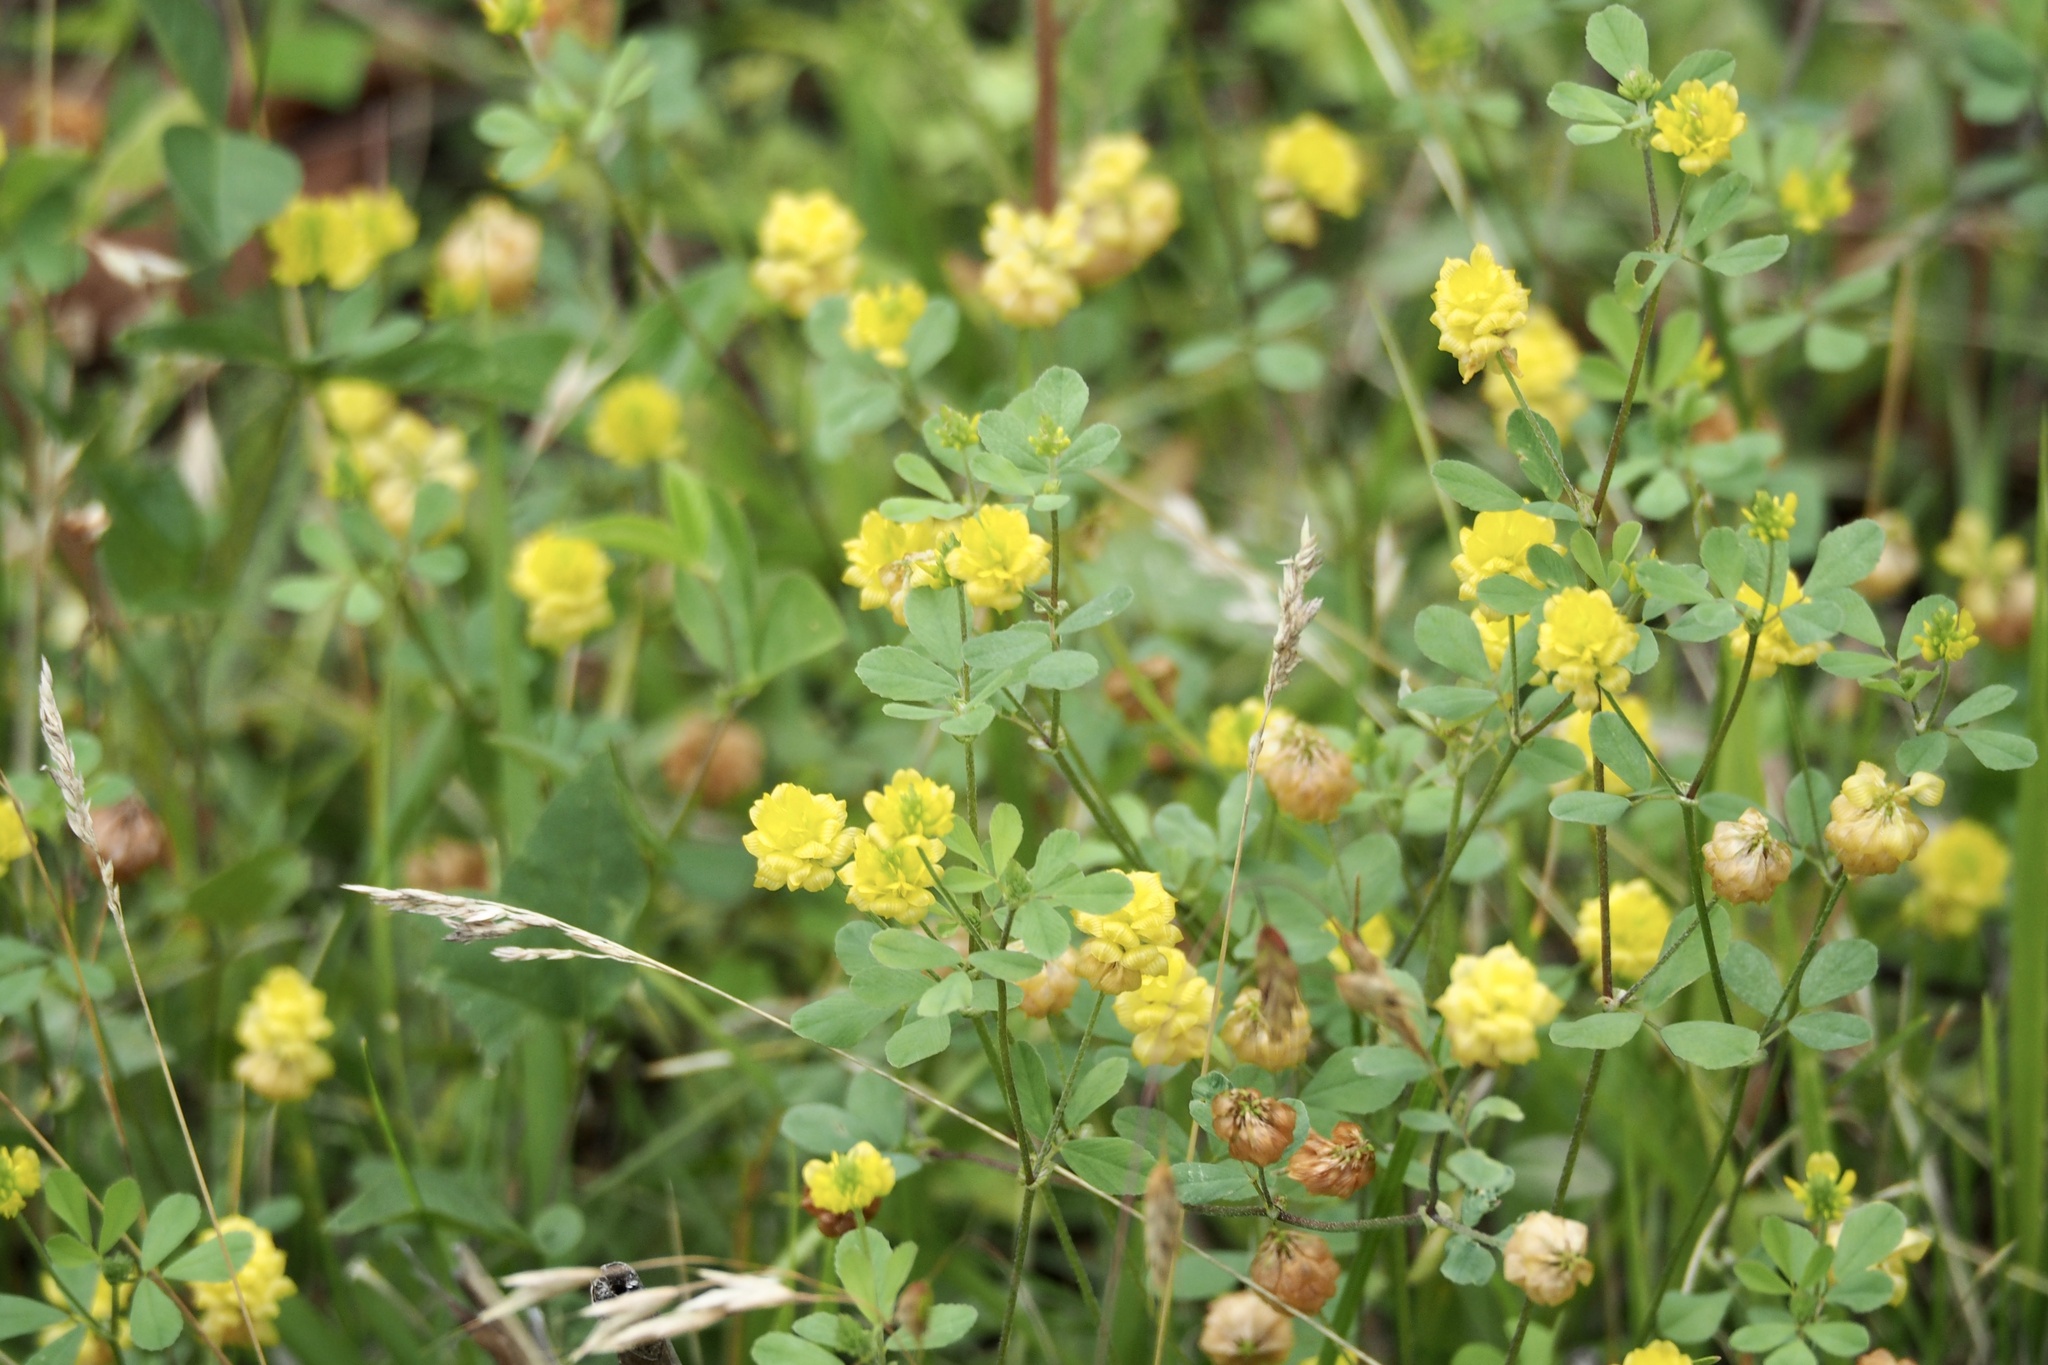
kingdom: Plantae
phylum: Tracheophyta
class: Magnoliopsida
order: Fabales
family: Fabaceae
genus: Trifolium
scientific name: Trifolium campestre
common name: Field clover
